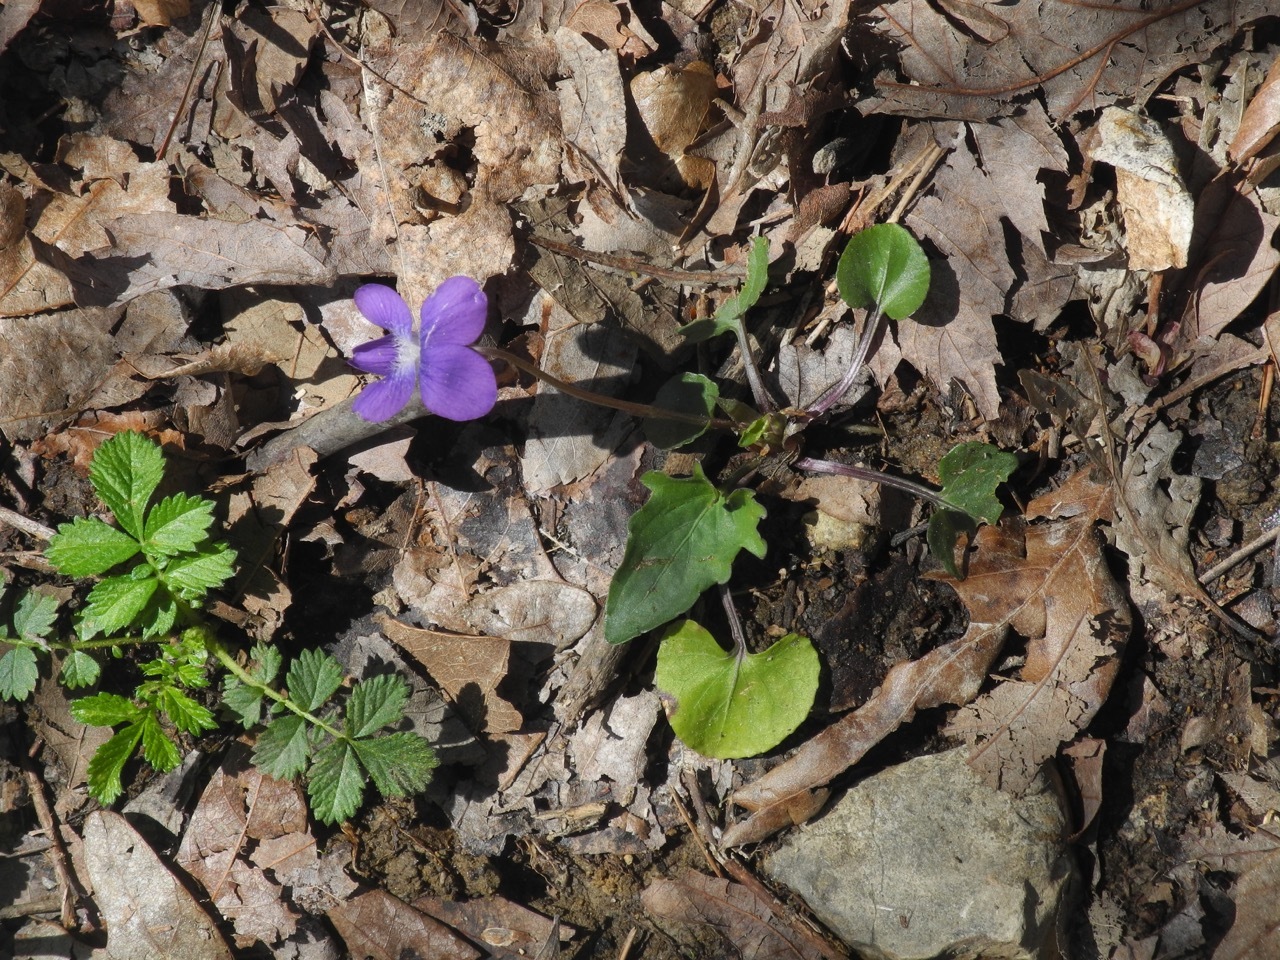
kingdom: Plantae
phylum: Tracheophyta
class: Magnoliopsida
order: Malpighiales
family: Violaceae
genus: Viola
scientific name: Viola sagittata
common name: Arrowhead violet
